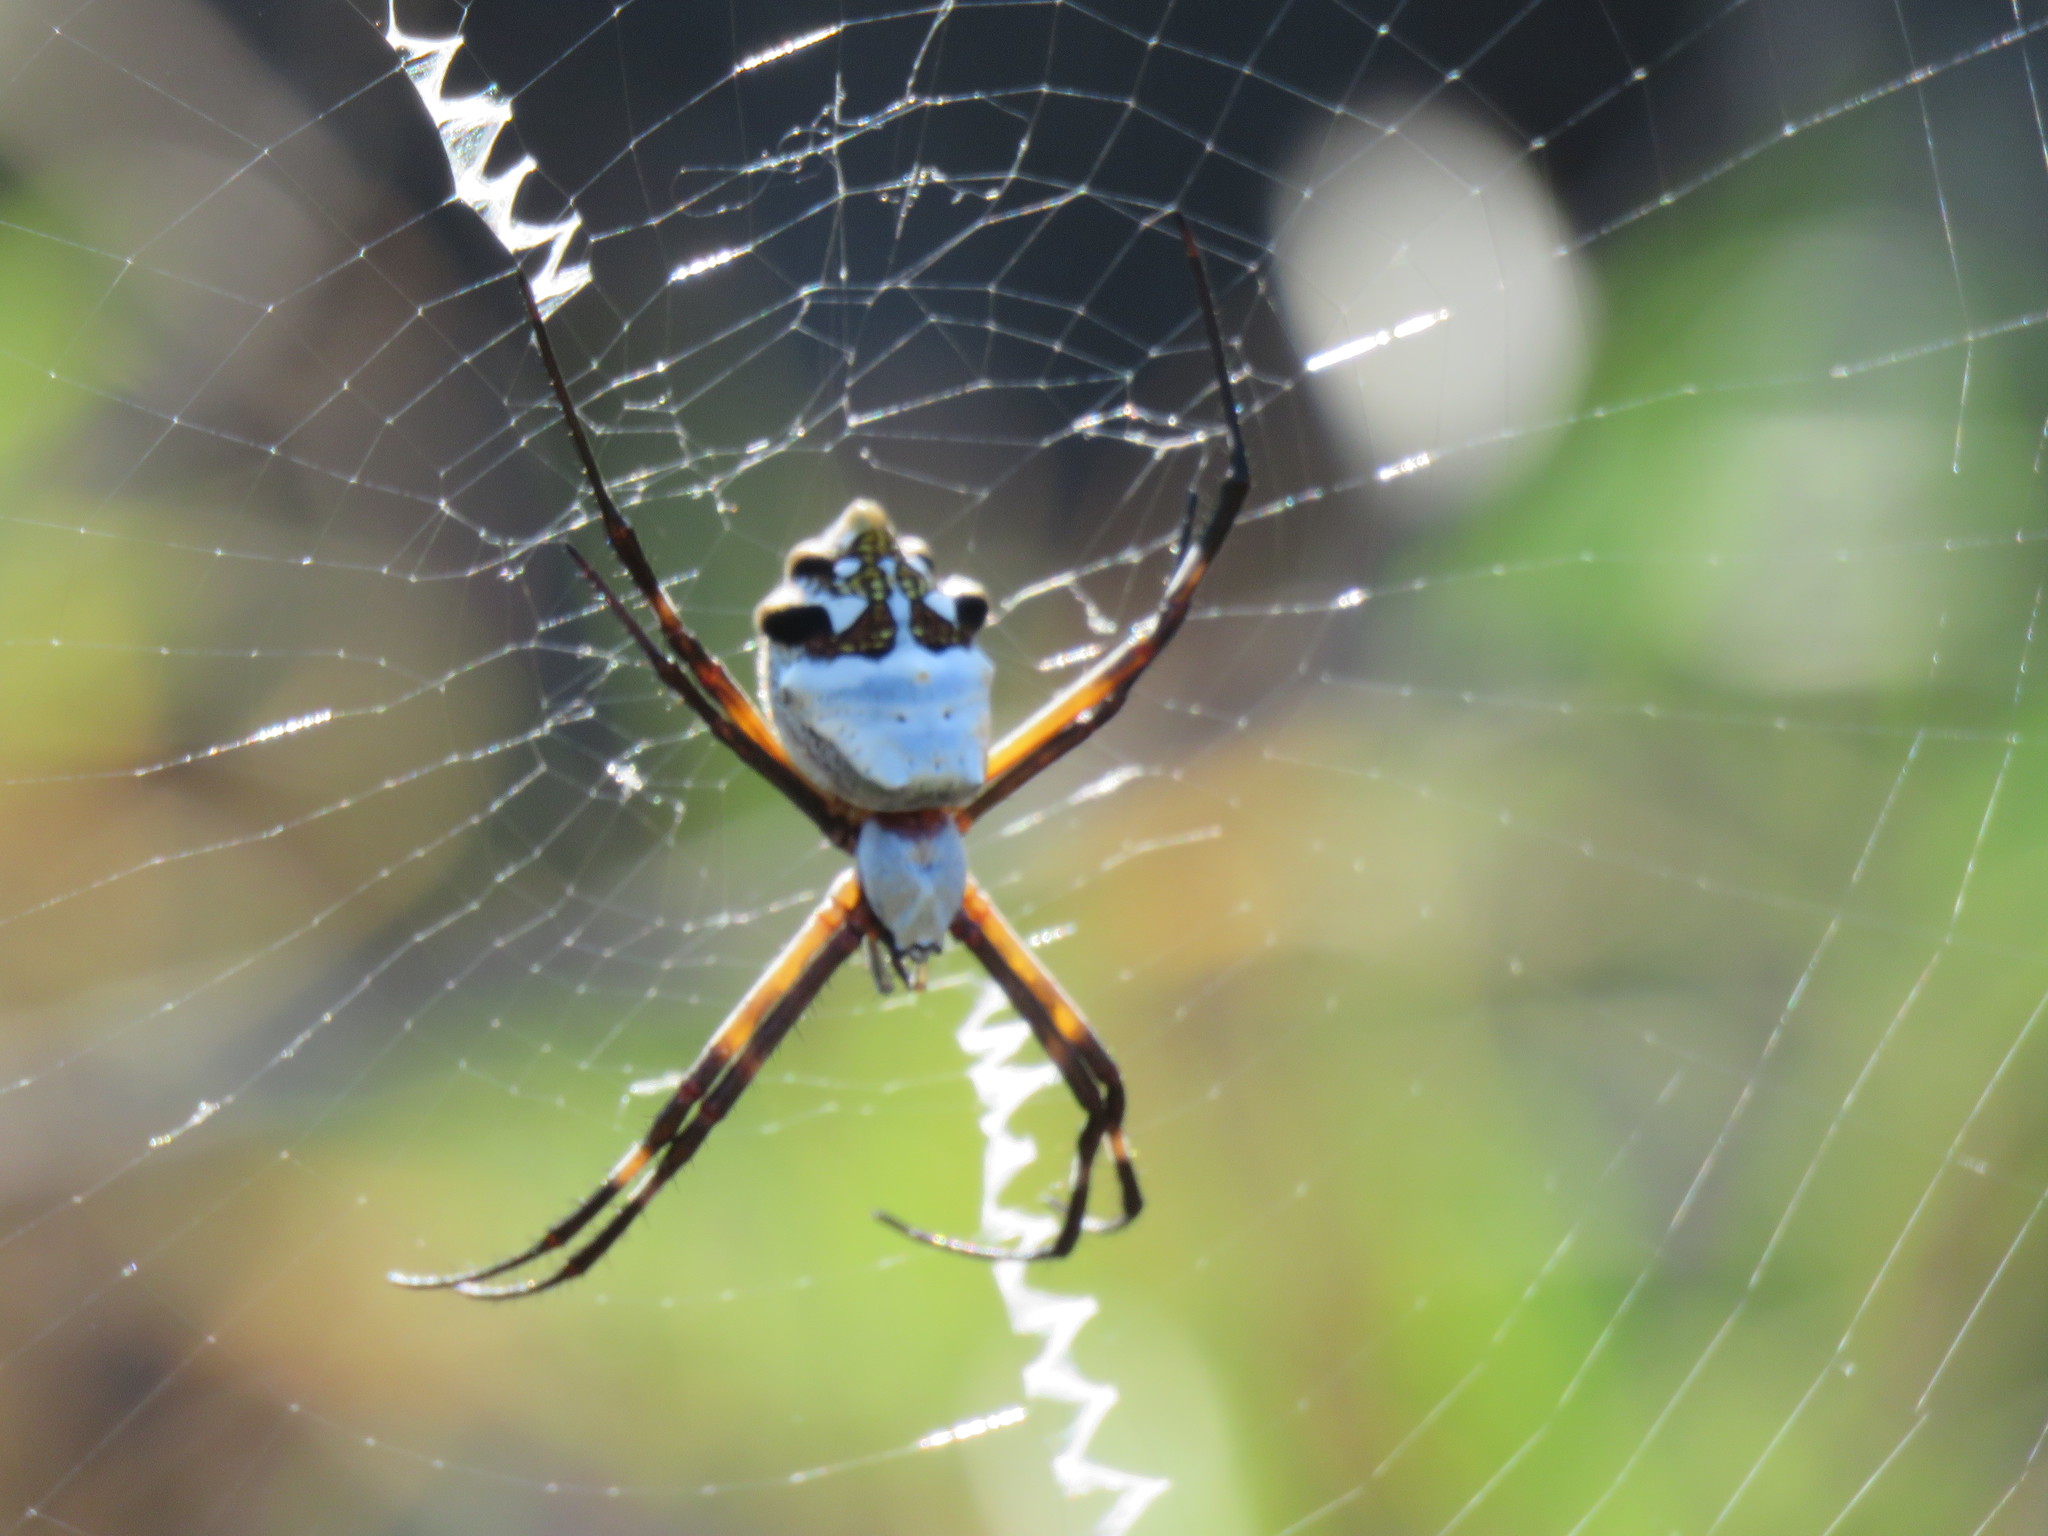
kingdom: Animalia
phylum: Arthropoda
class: Arachnida
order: Araneae
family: Araneidae
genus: Argiope
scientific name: Argiope argentata
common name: Orb weavers
